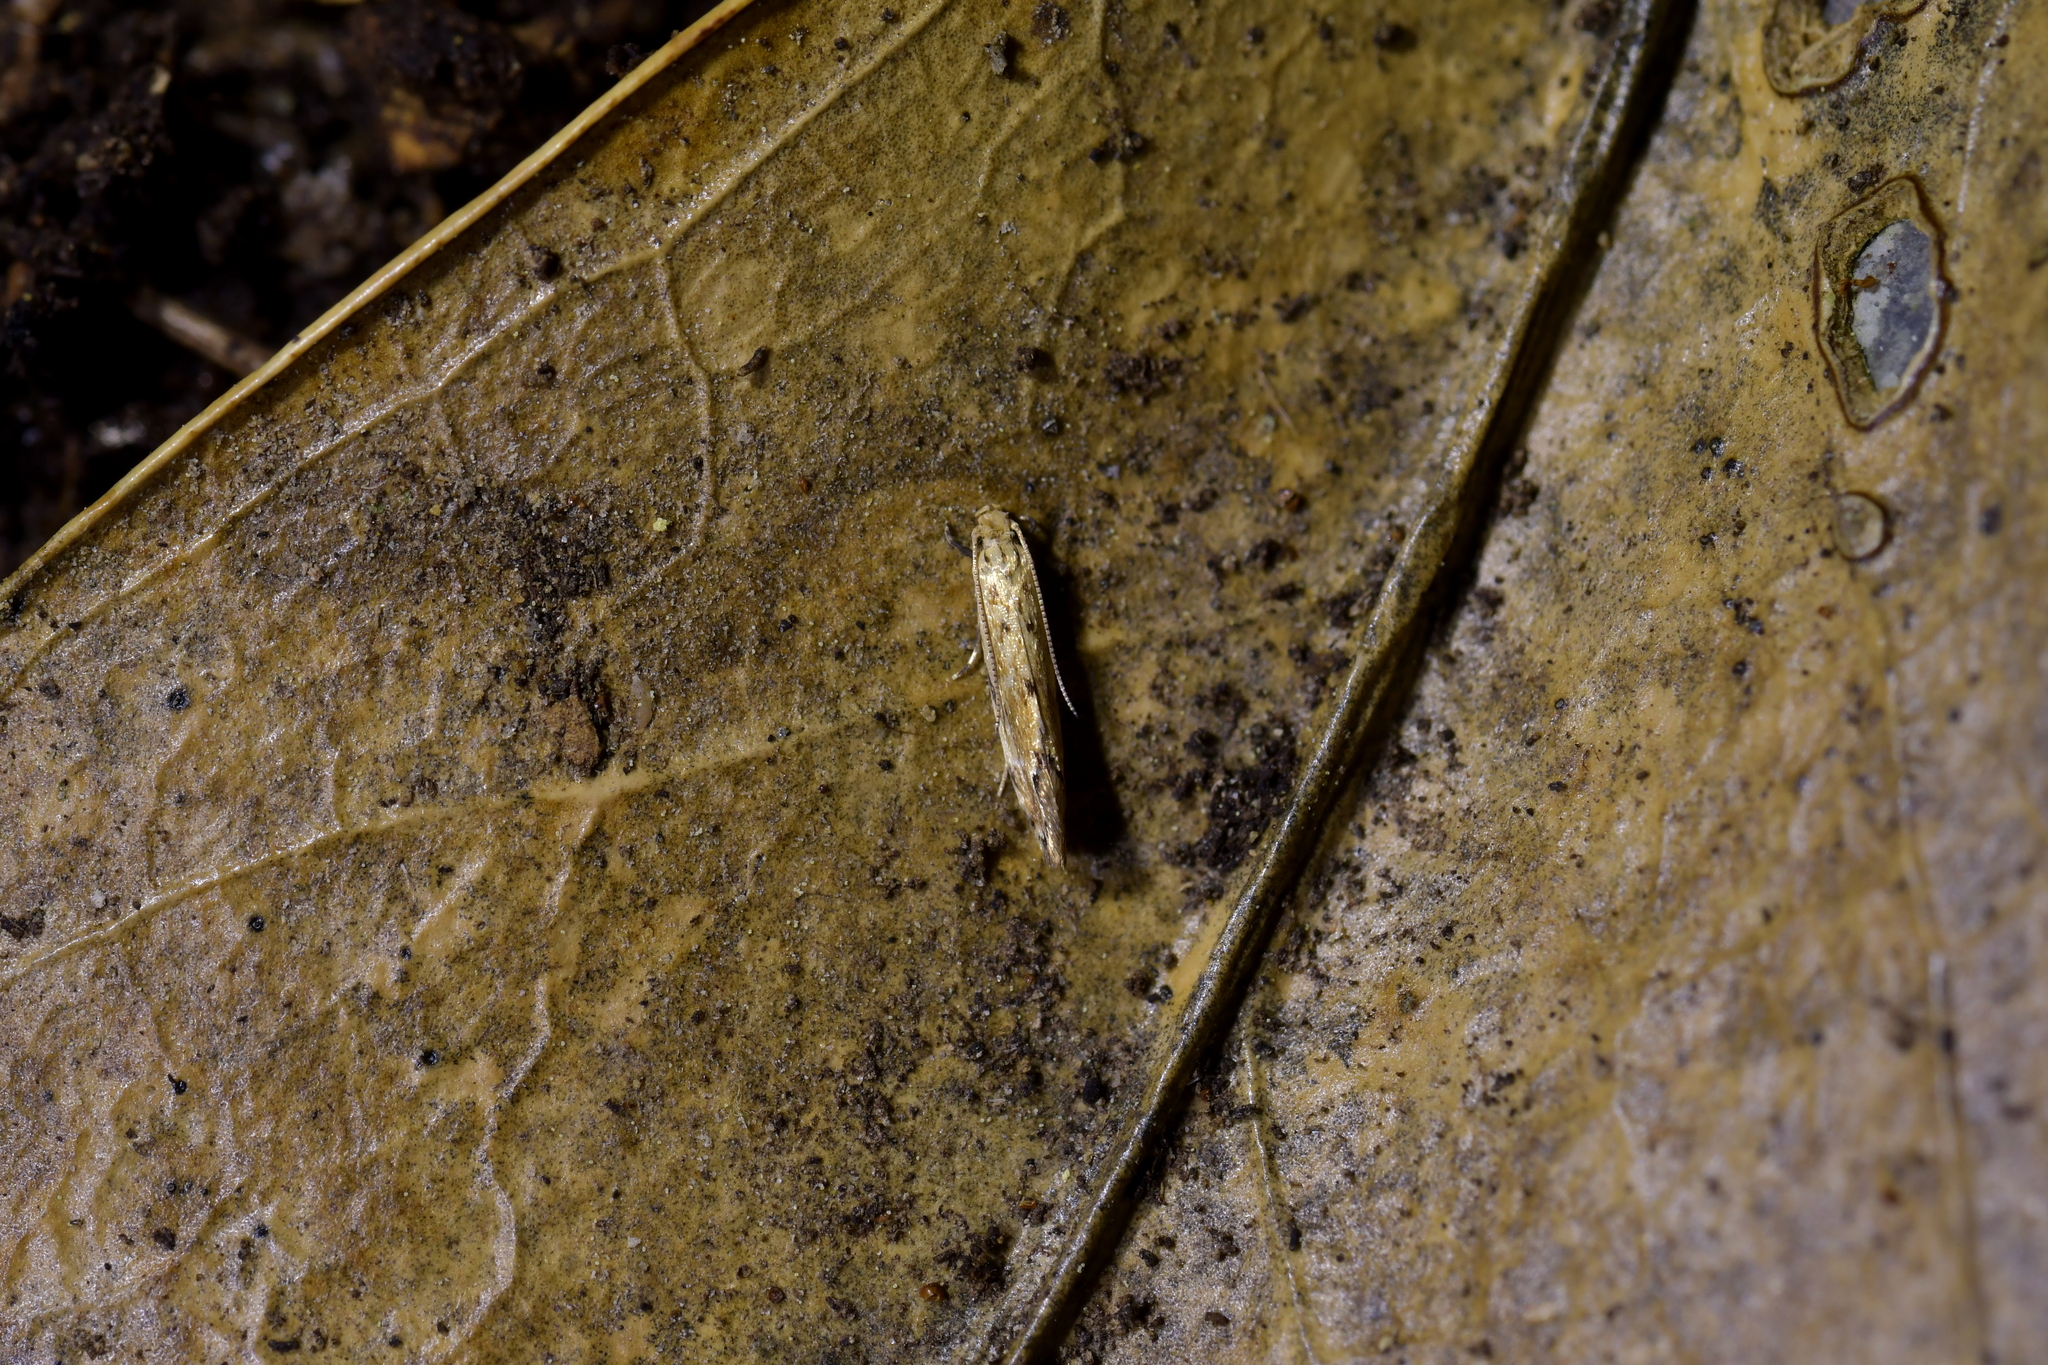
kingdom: Animalia
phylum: Arthropoda
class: Insecta
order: Lepidoptera
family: Dryadaulidae
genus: Dryadaula
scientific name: Dryadaula myrrhina
